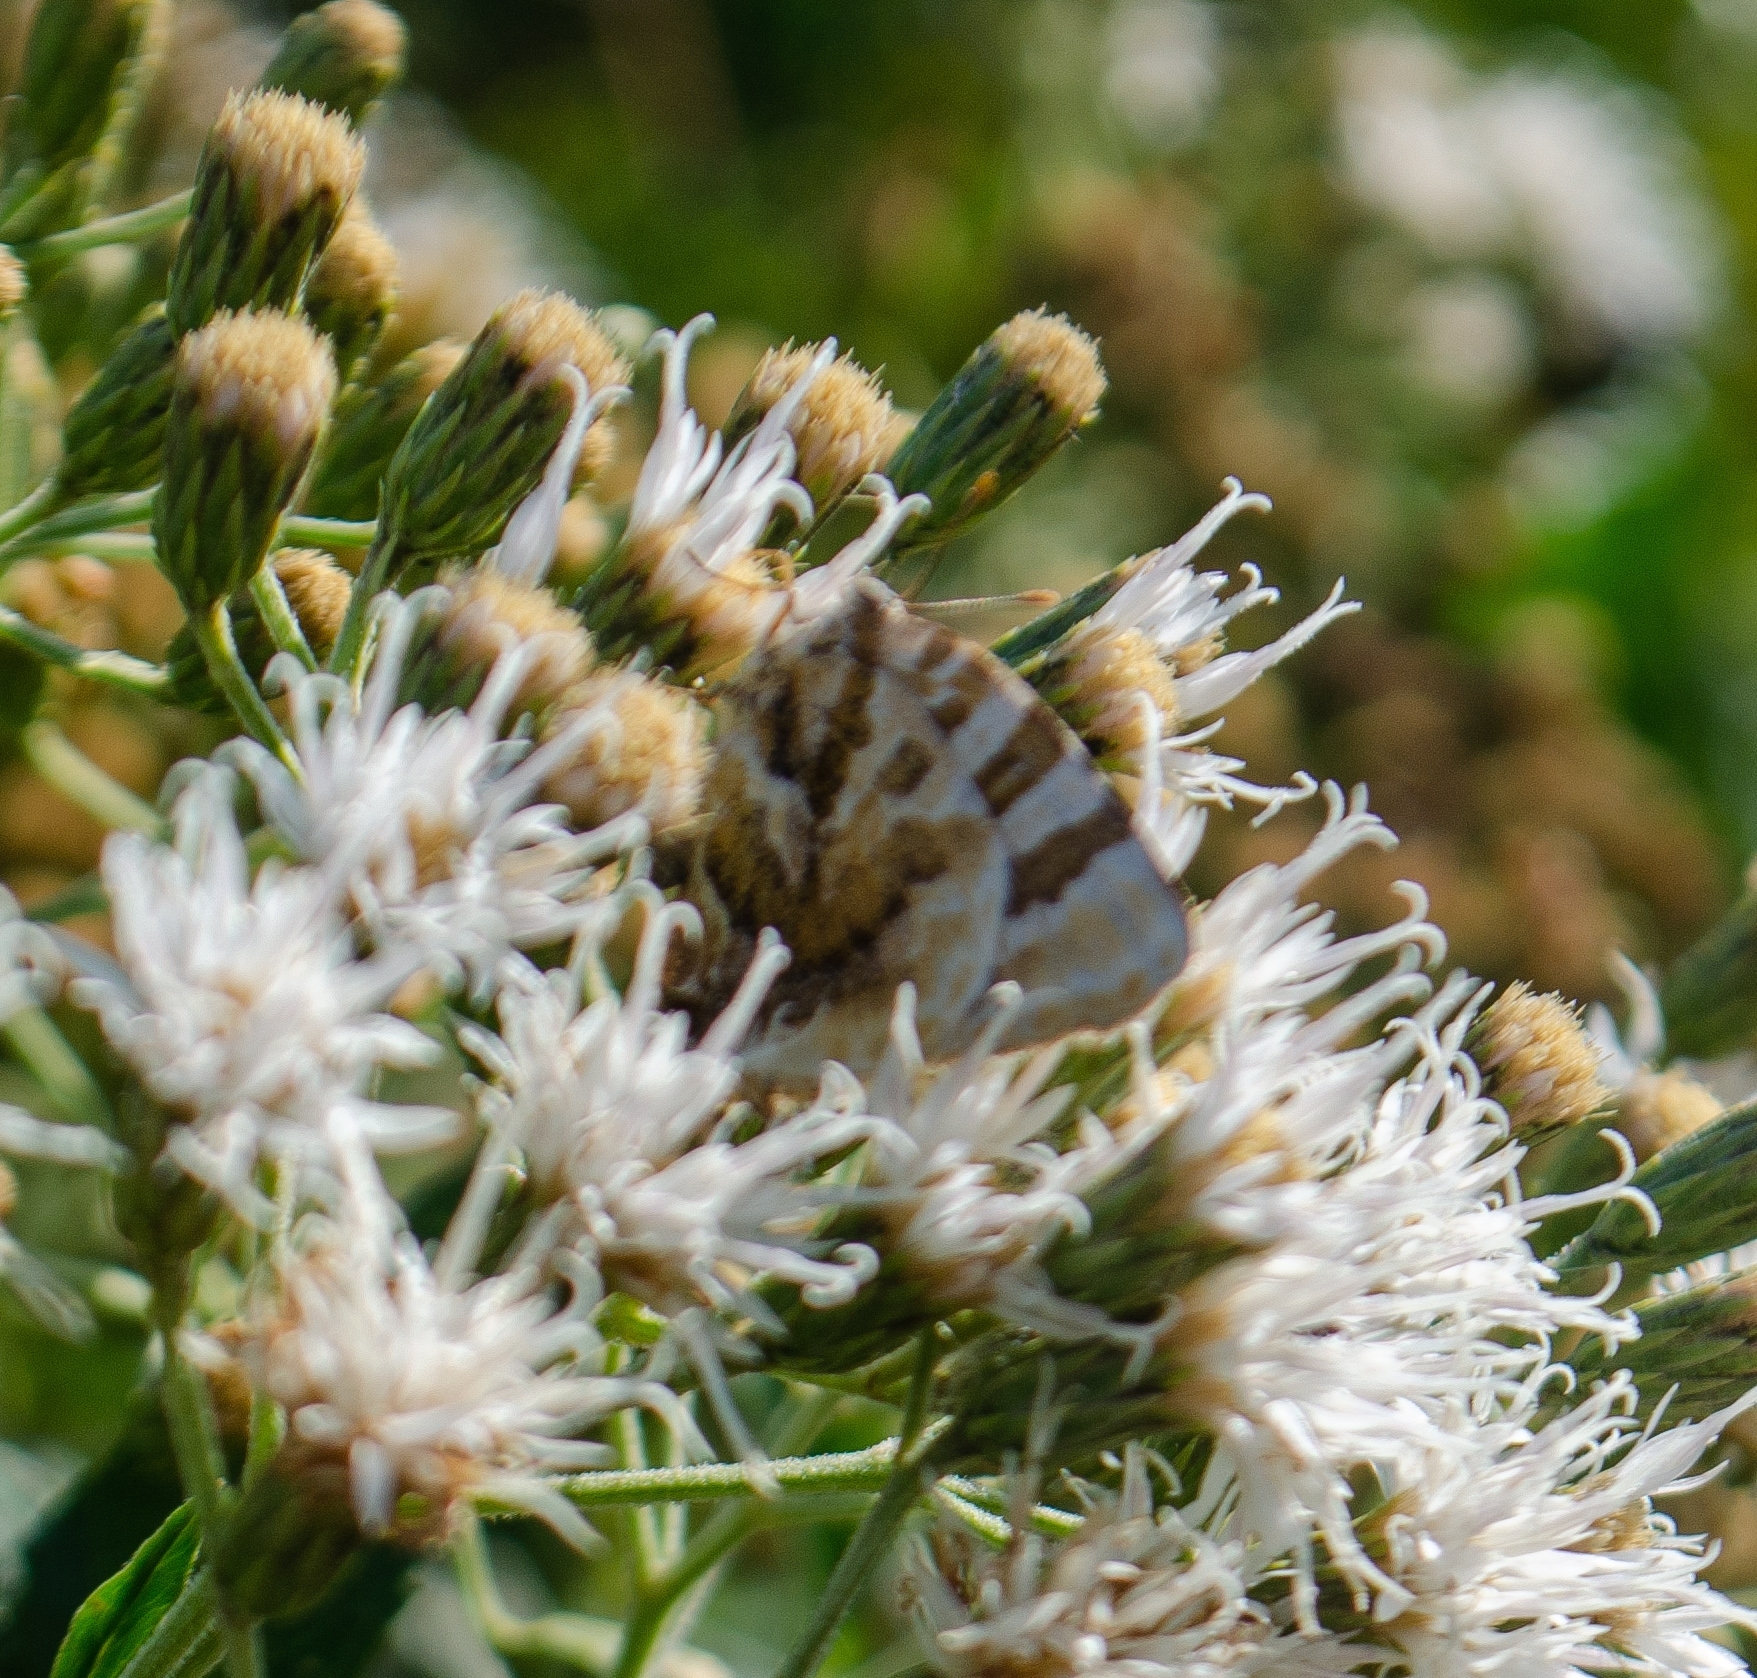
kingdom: Animalia
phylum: Arthropoda
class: Insecta
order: Lepidoptera
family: Lycaenidae
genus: Arawacus
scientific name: Arawacus ellida
